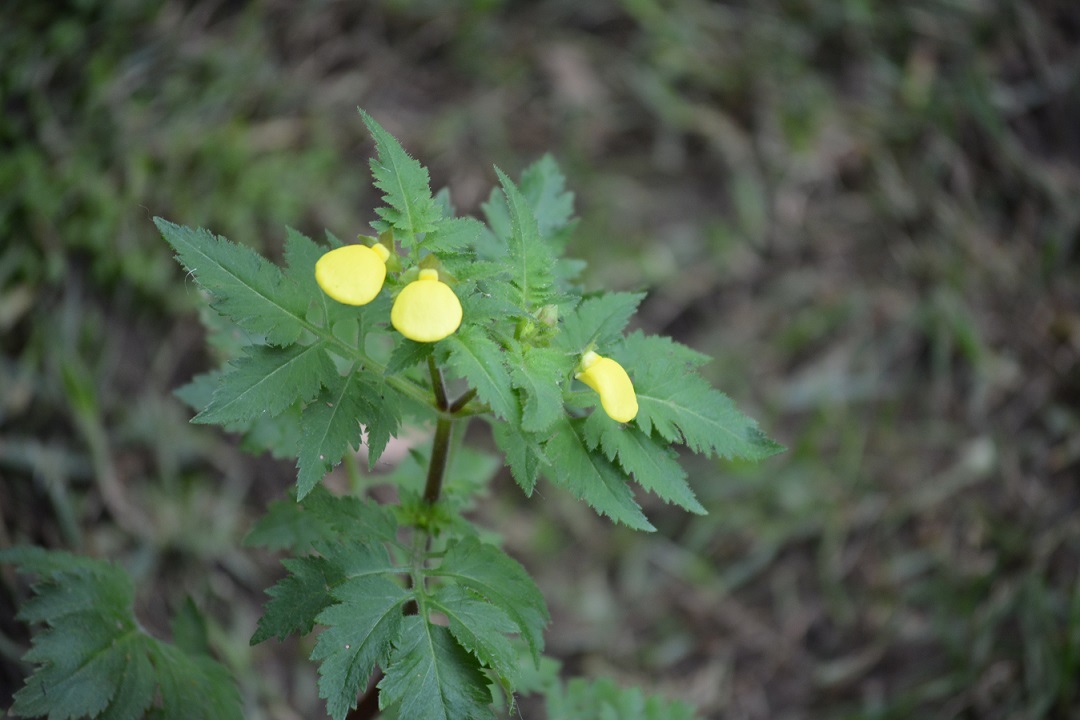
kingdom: Plantae
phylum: Tracheophyta
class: Magnoliopsida
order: Lamiales
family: Calceolariaceae
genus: Calceolaria
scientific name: Calceolaria tripartita
